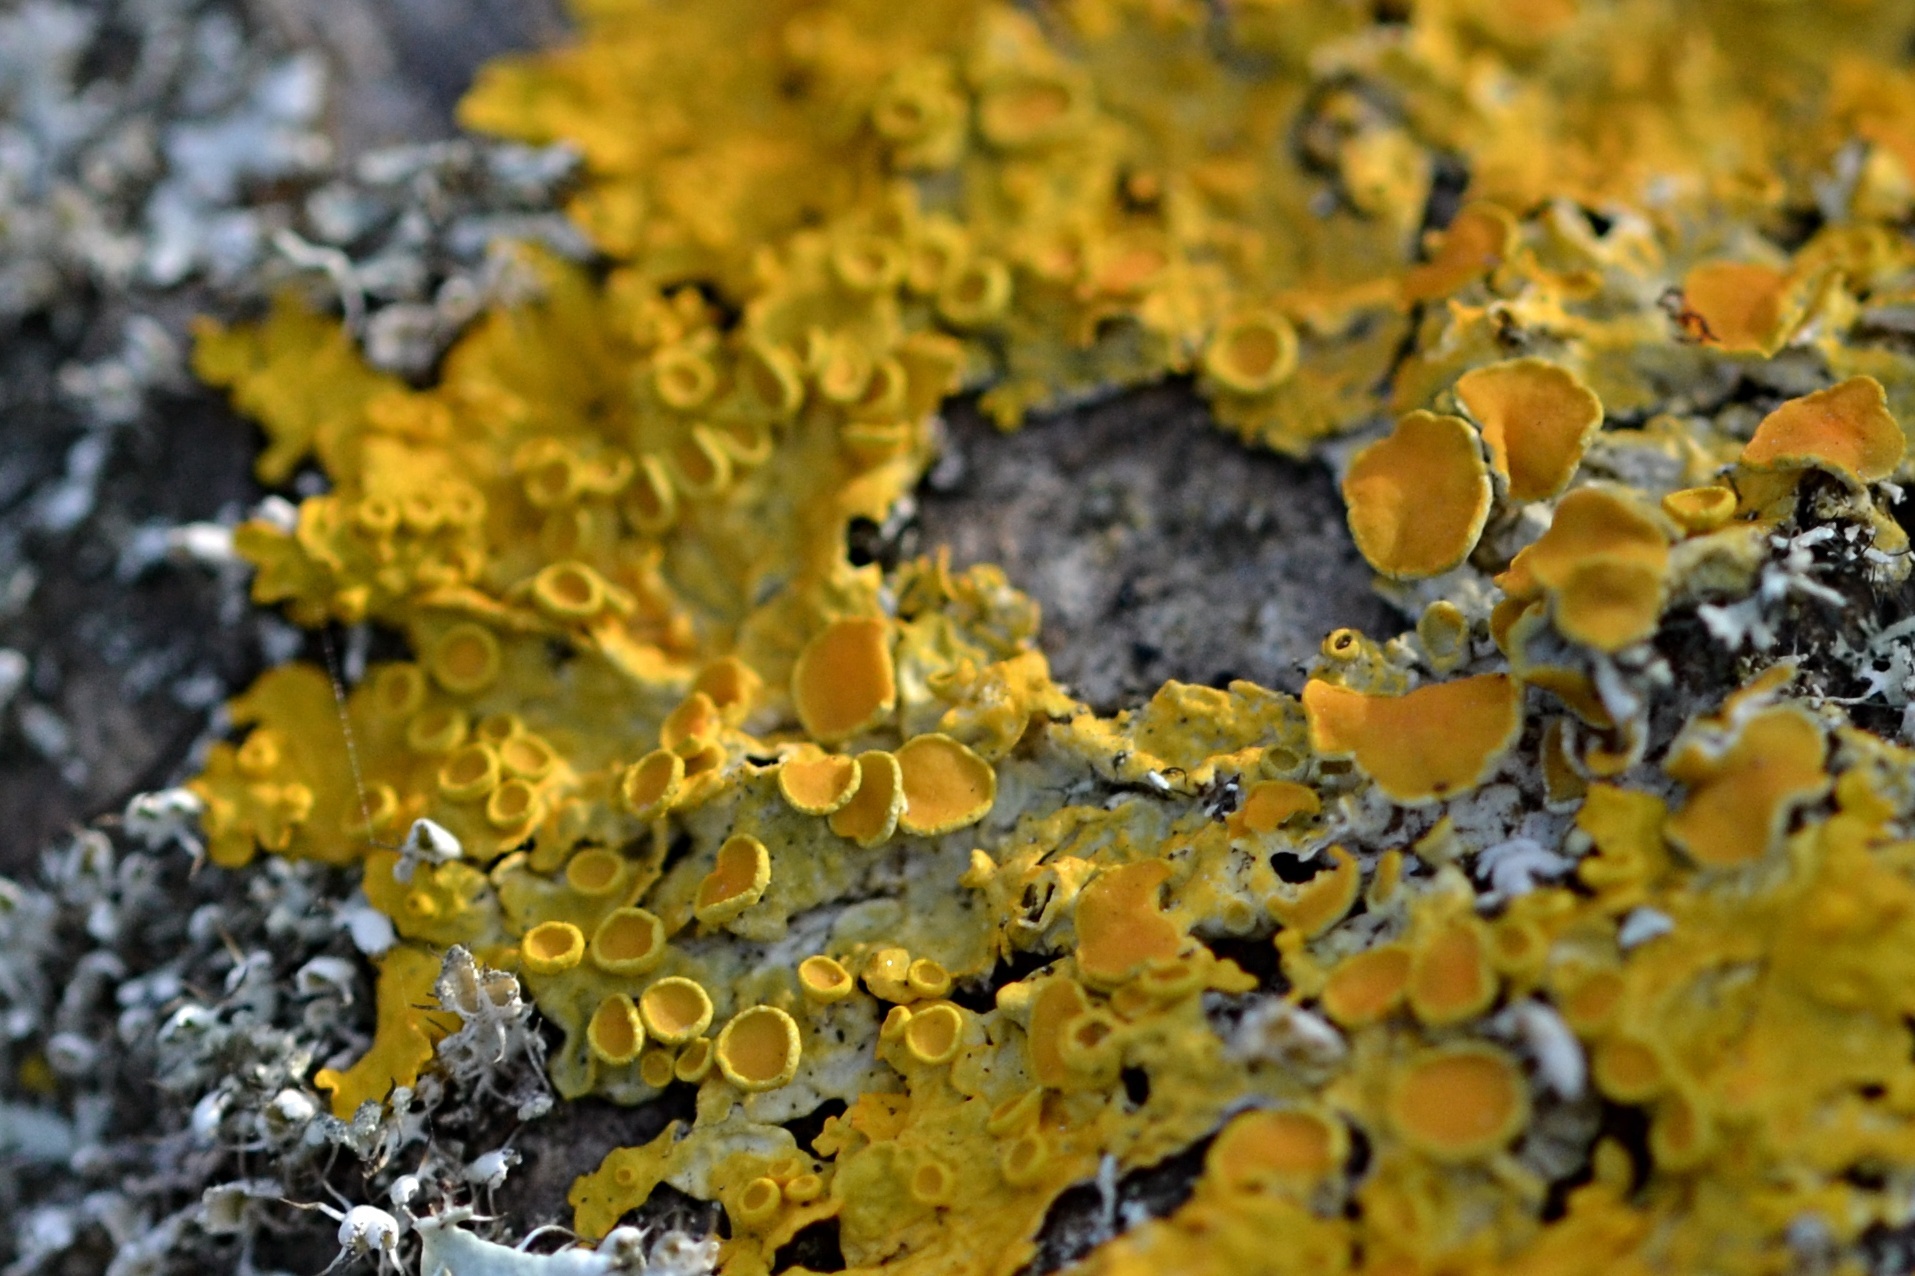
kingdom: Fungi
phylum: Ascomycota
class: Lecanoromycetes
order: Teloschistales
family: Teloschistaceae
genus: Xanthoria
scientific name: Xanthoria parietina
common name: Common orange lichen
